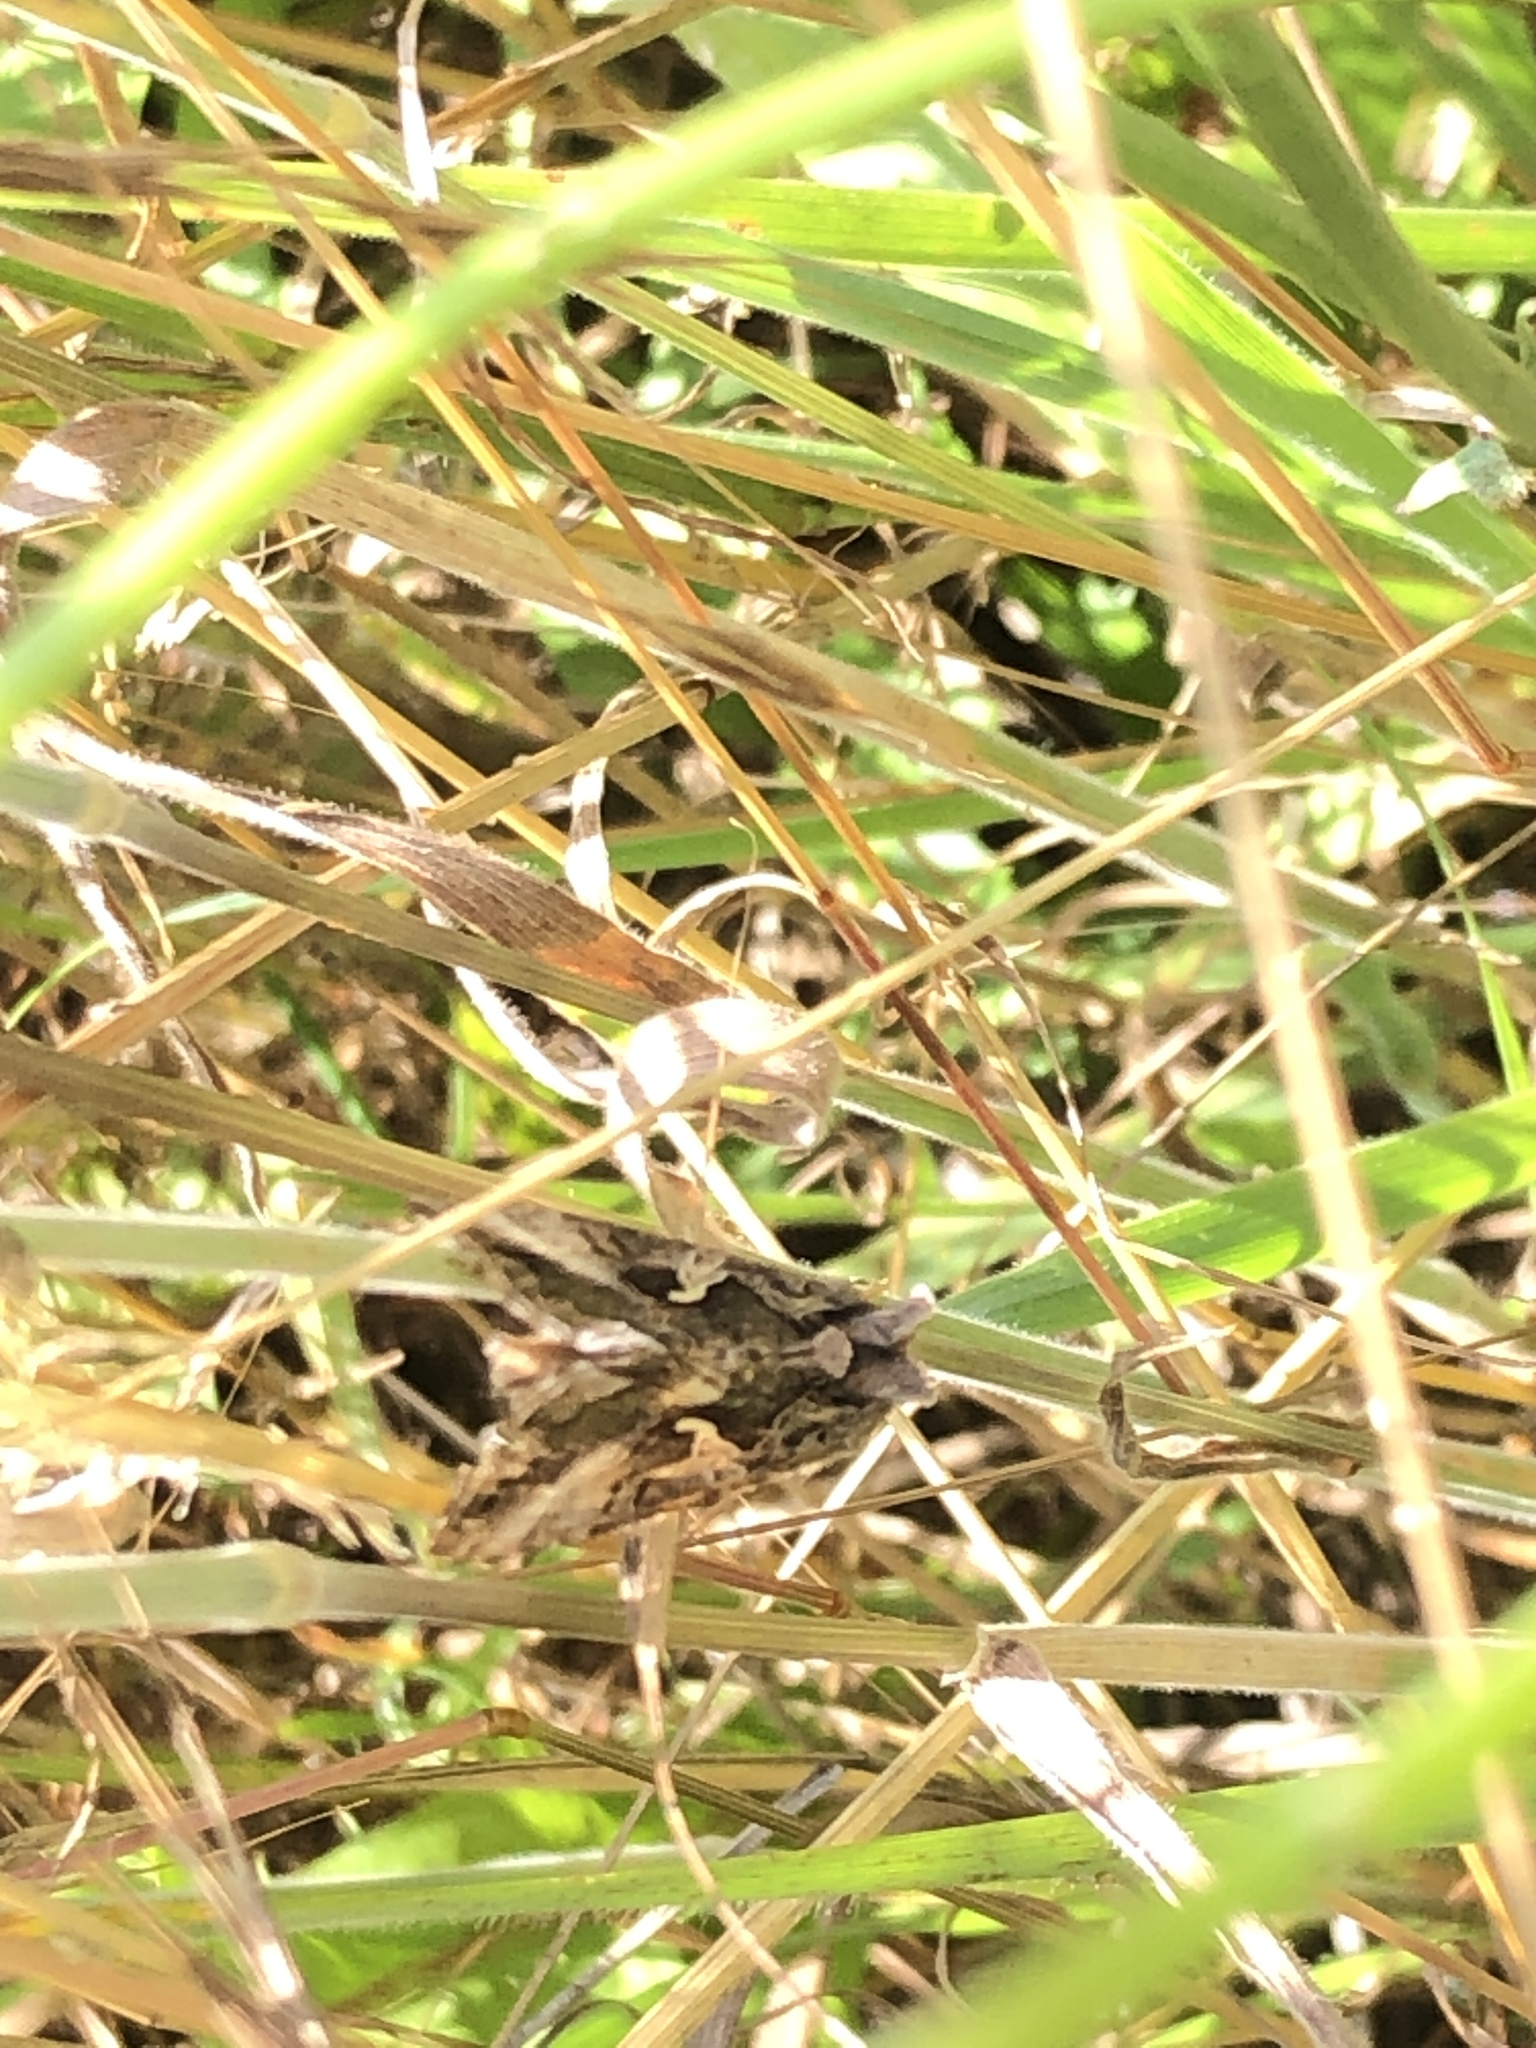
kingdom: Animalia
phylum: Arthropoda
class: Insecta
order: Lepidoptera
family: Noctuidae
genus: Autographa
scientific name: Autographa gamma
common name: Silver y
